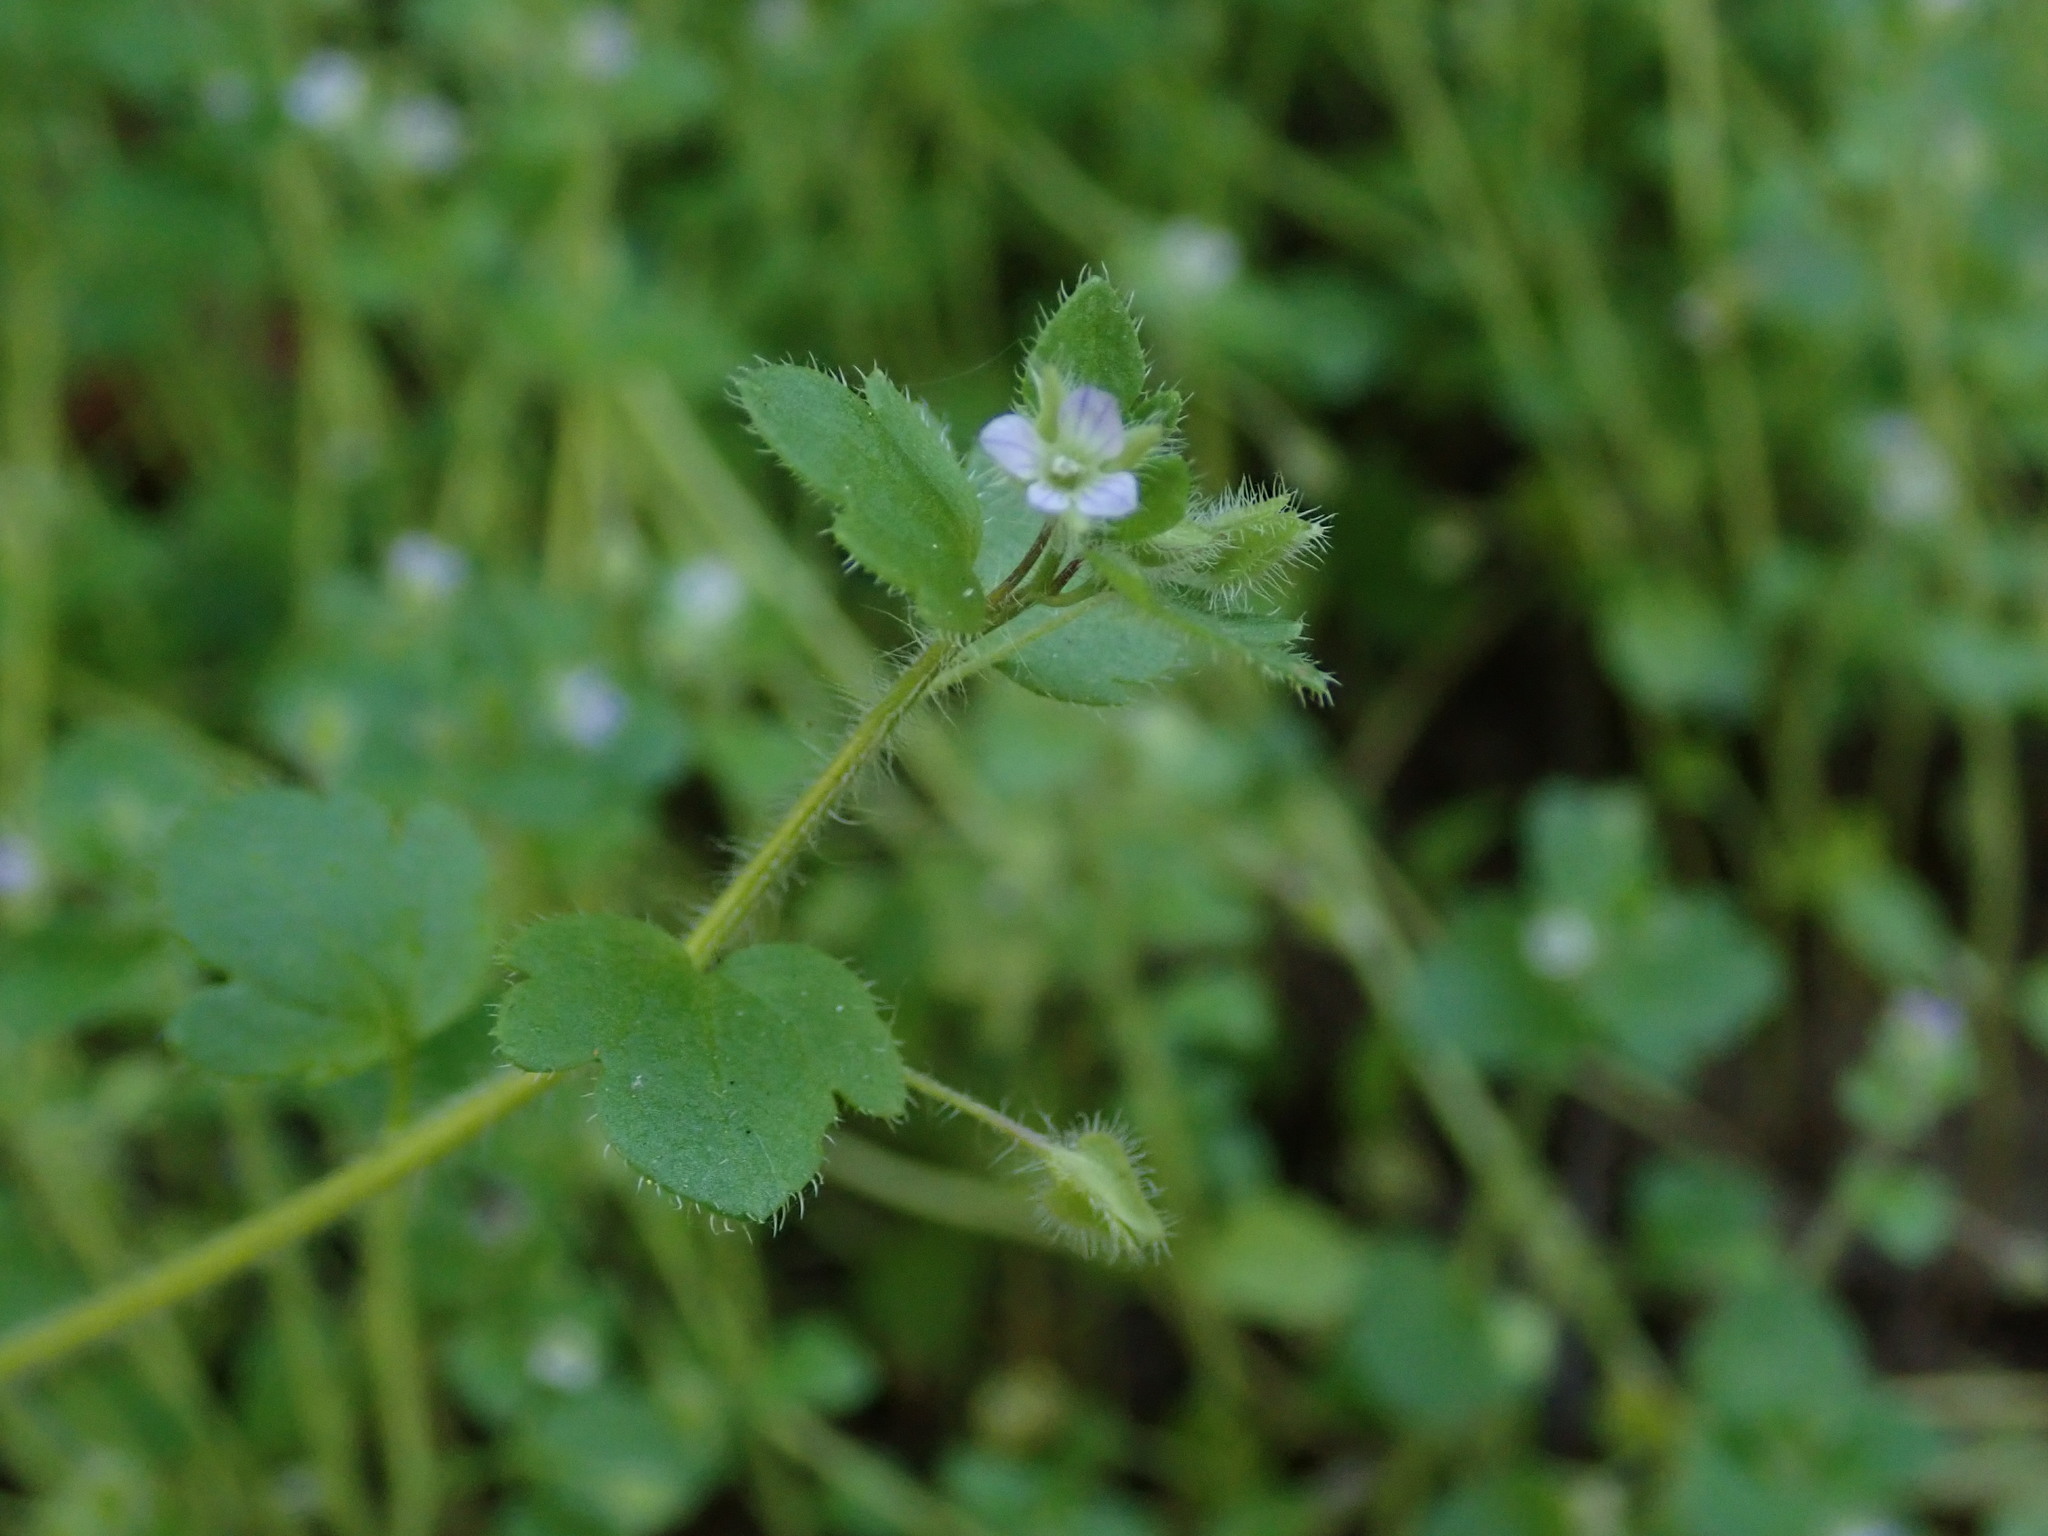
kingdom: Plantae
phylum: Tracheophyta
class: Magnoliopsida
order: Lamiales
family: Plantaginaceae
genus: Veronica
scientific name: Veronica sublobata
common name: False ivy-leaved speedwell
